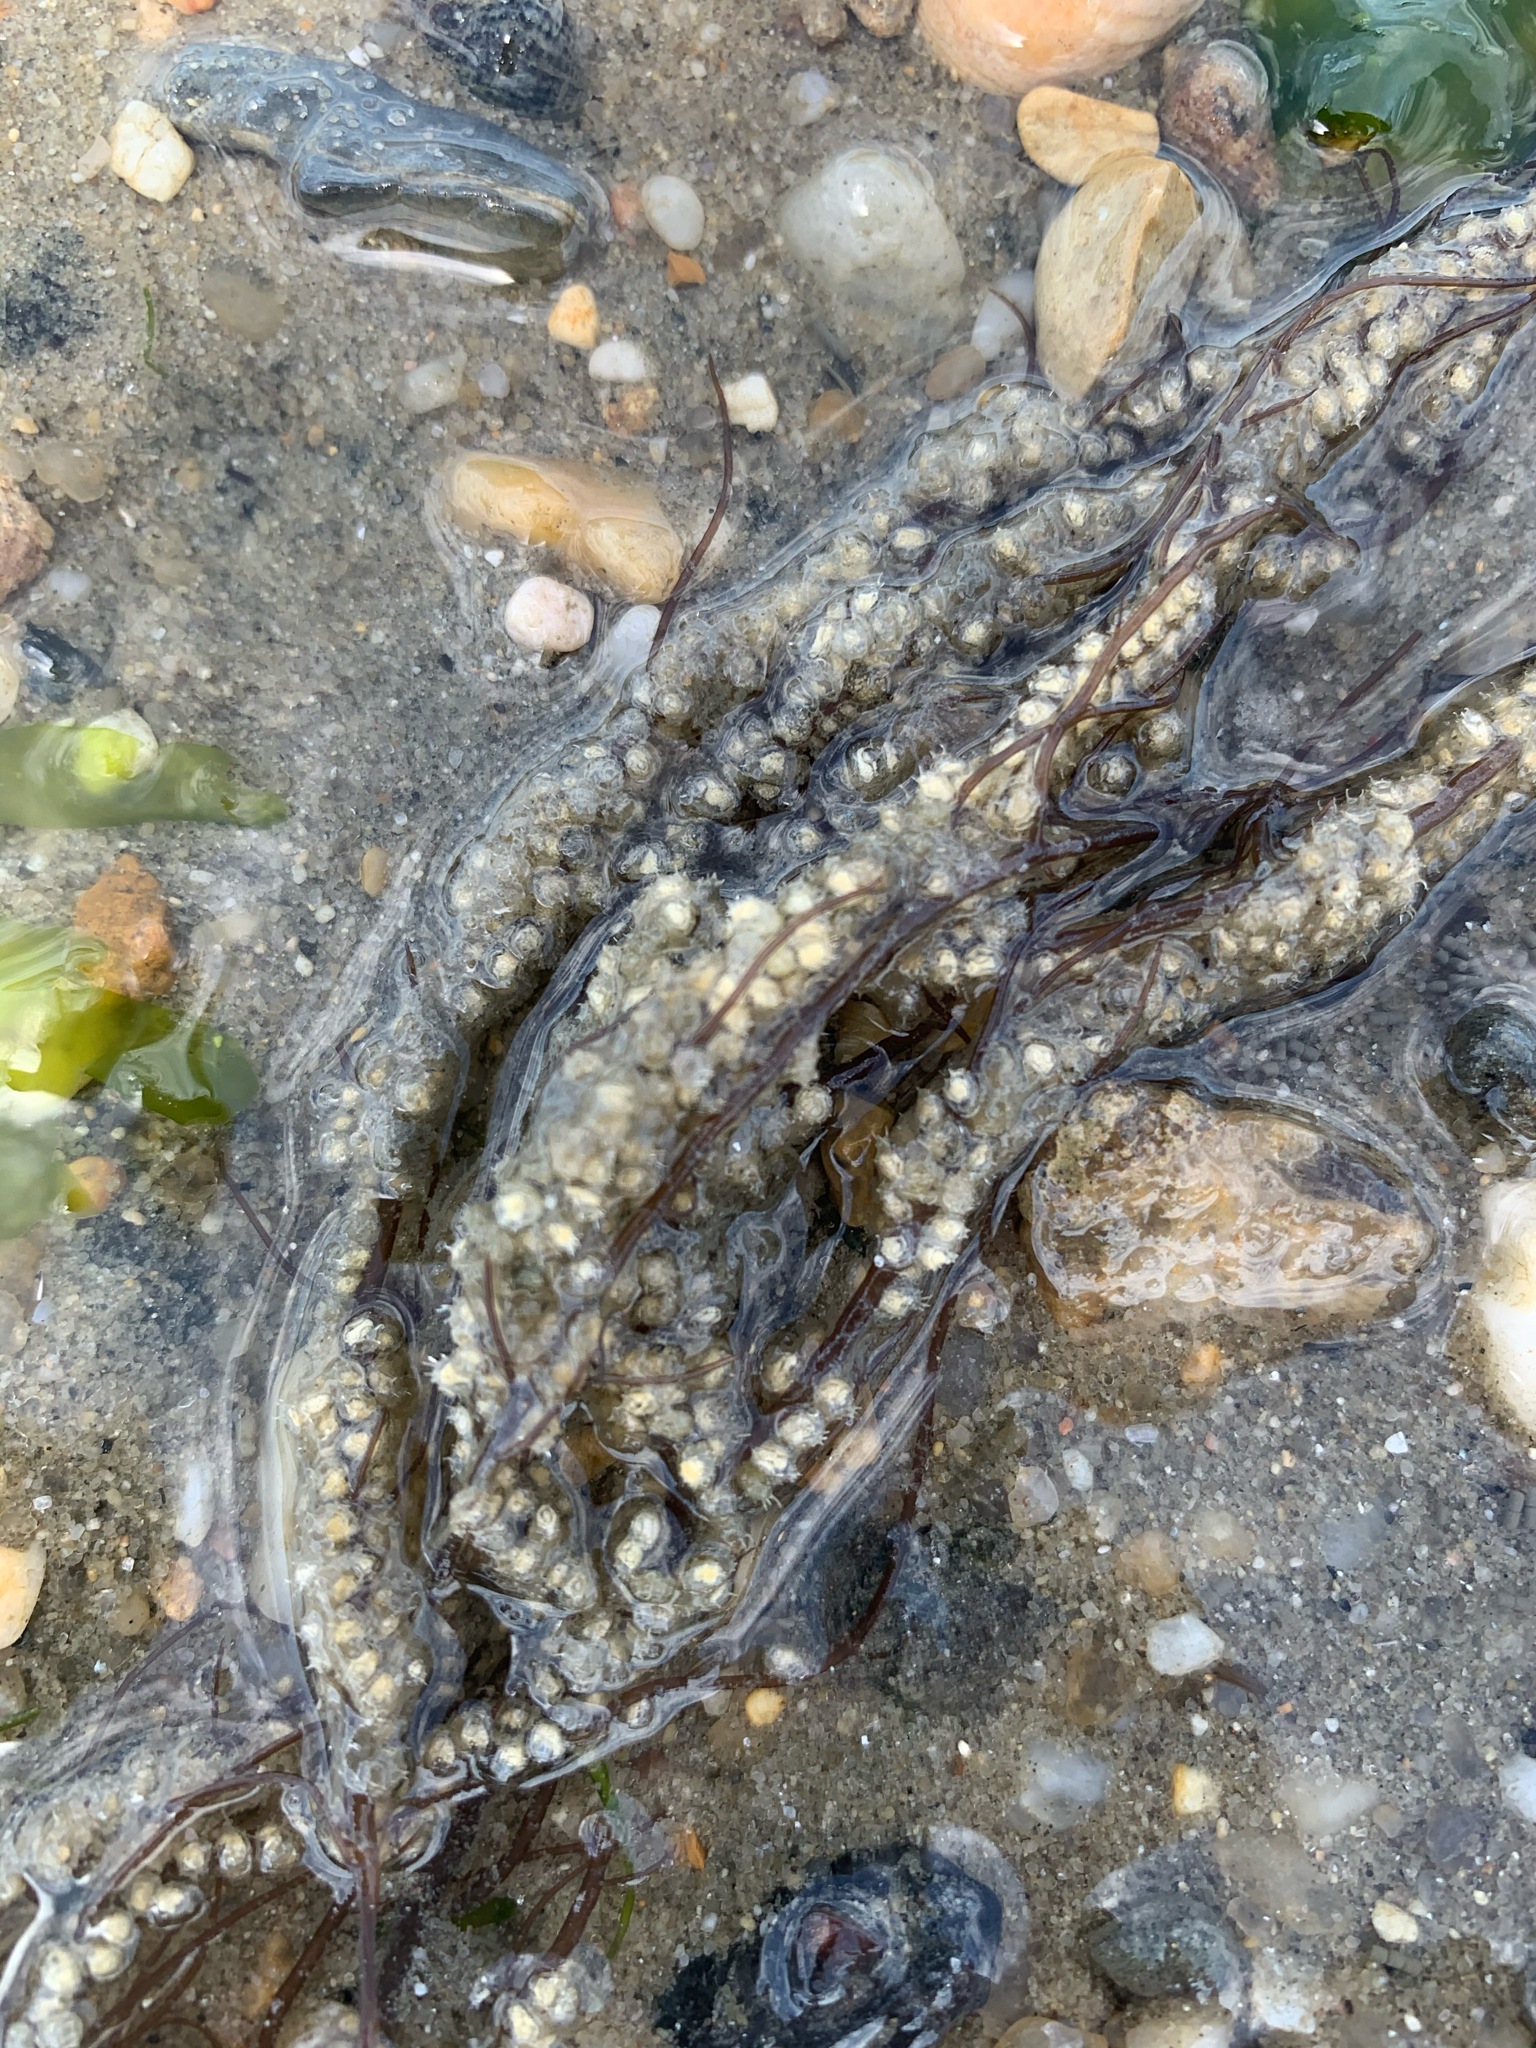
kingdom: Animalia
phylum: Mollusca
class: Gastropoda
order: Neogastropoda
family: Nassariidae
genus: Ilyanassa
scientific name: Ilyanassa obsoleta
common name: Eastern mudsnail
